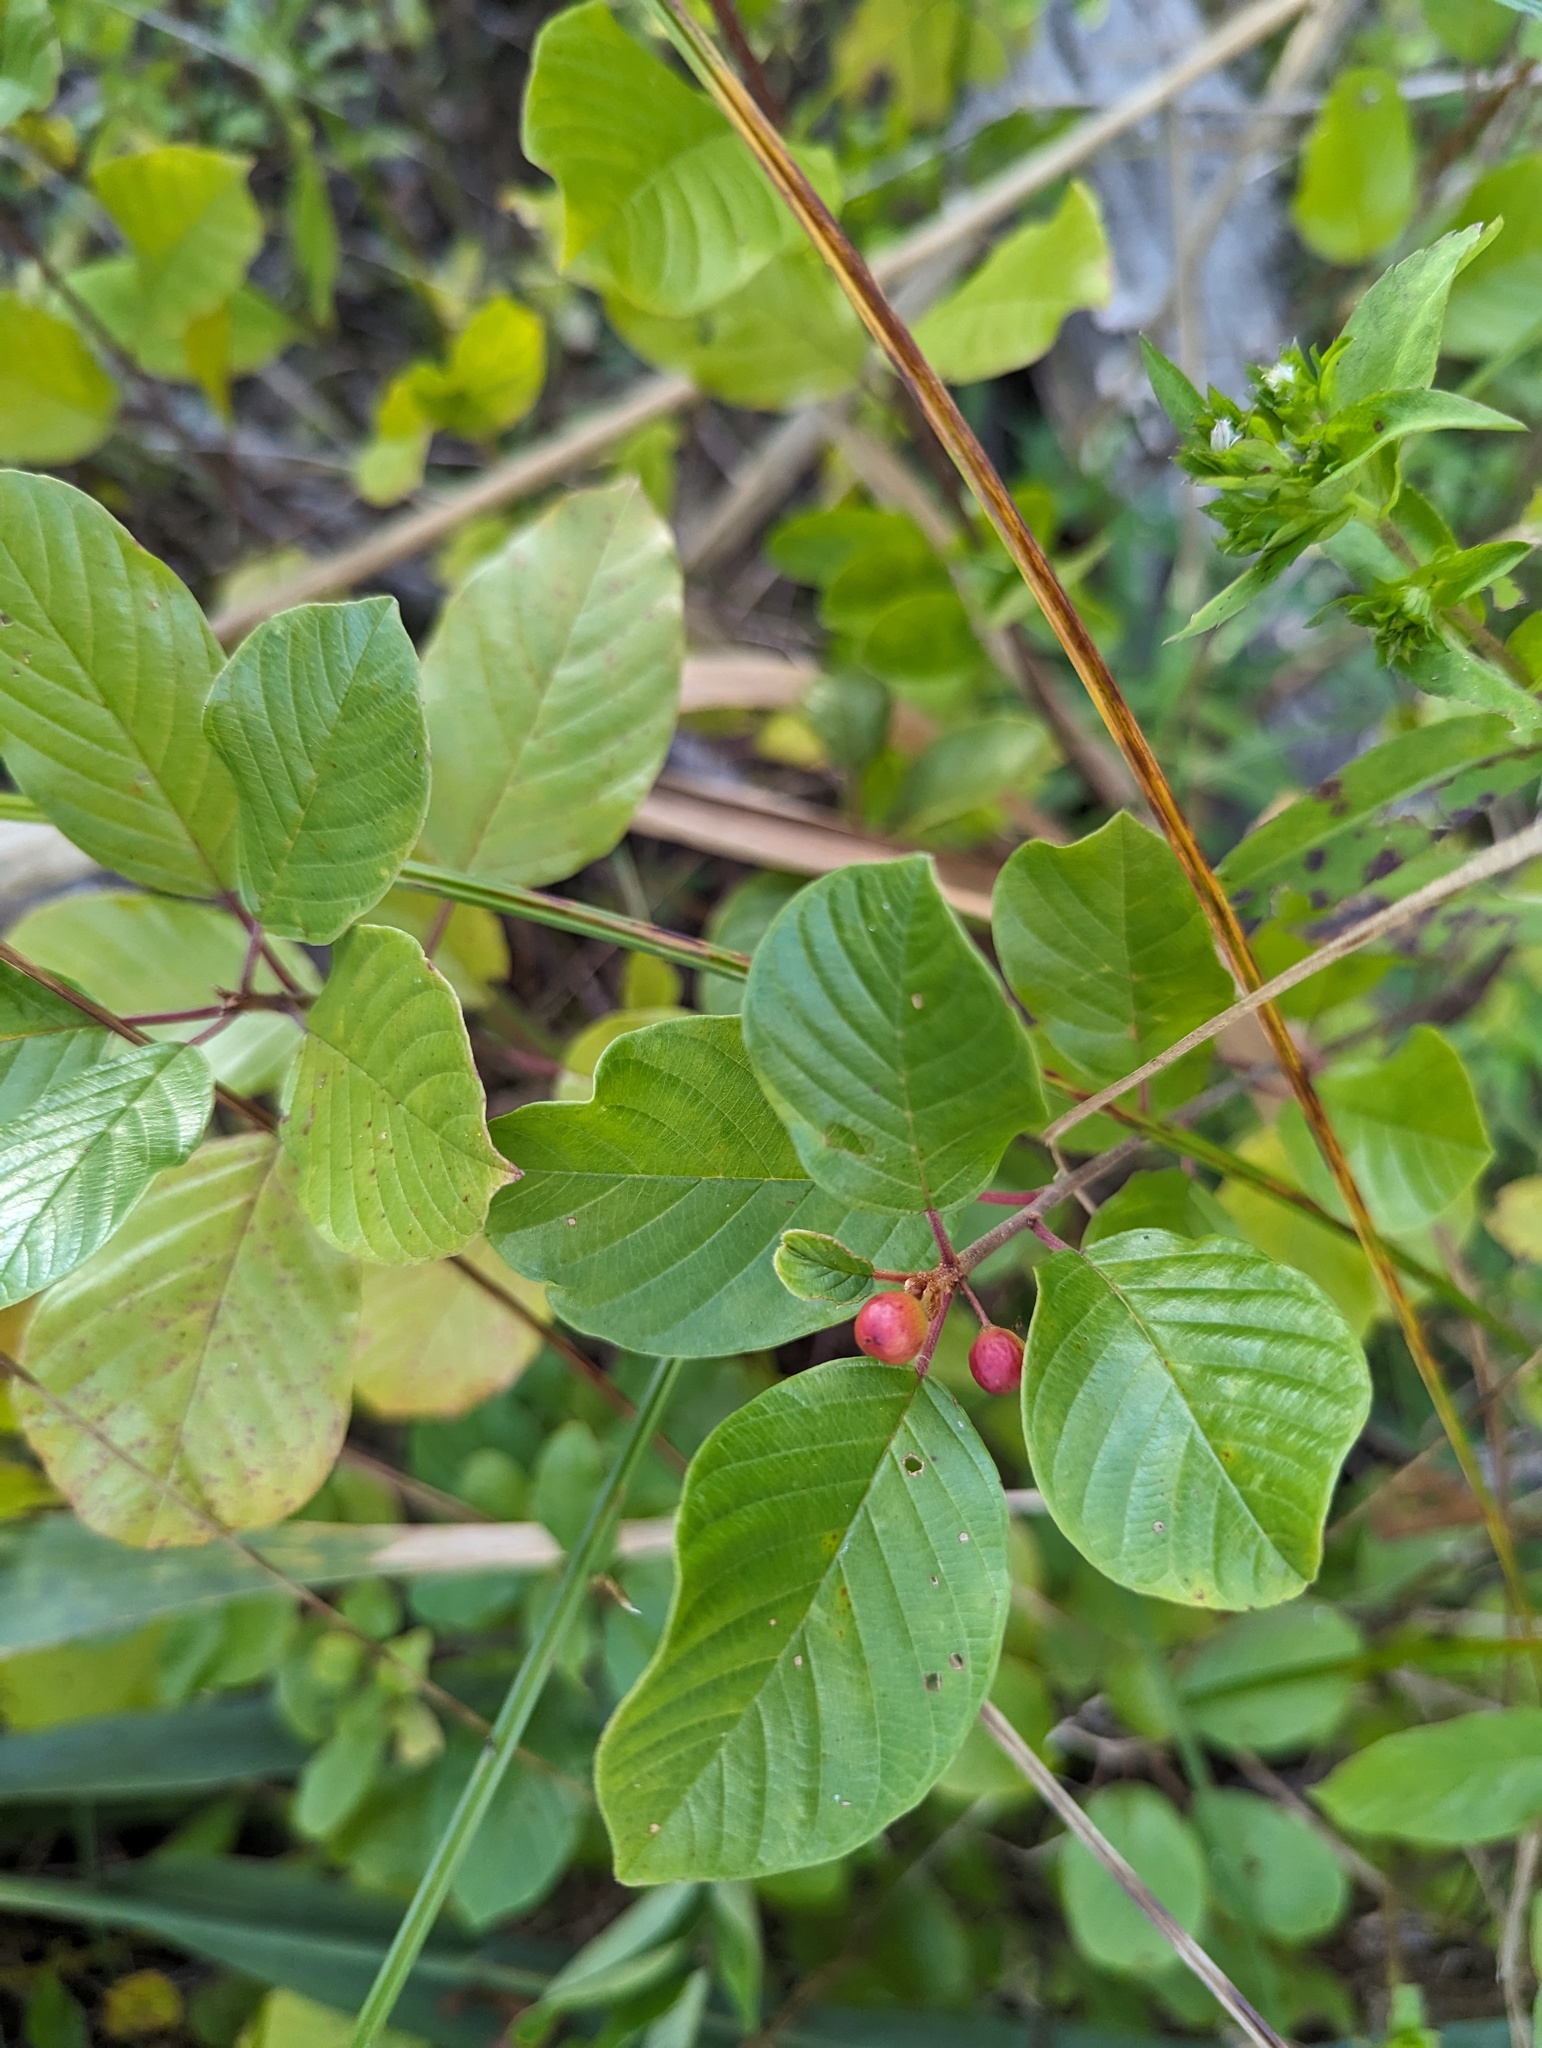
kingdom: Plantae
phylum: Tracheophyta
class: Magnoliopsida
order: Rosales
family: Rhamnaceae
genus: Frangula
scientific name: Frangula alnus
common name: Alder buckthorn
